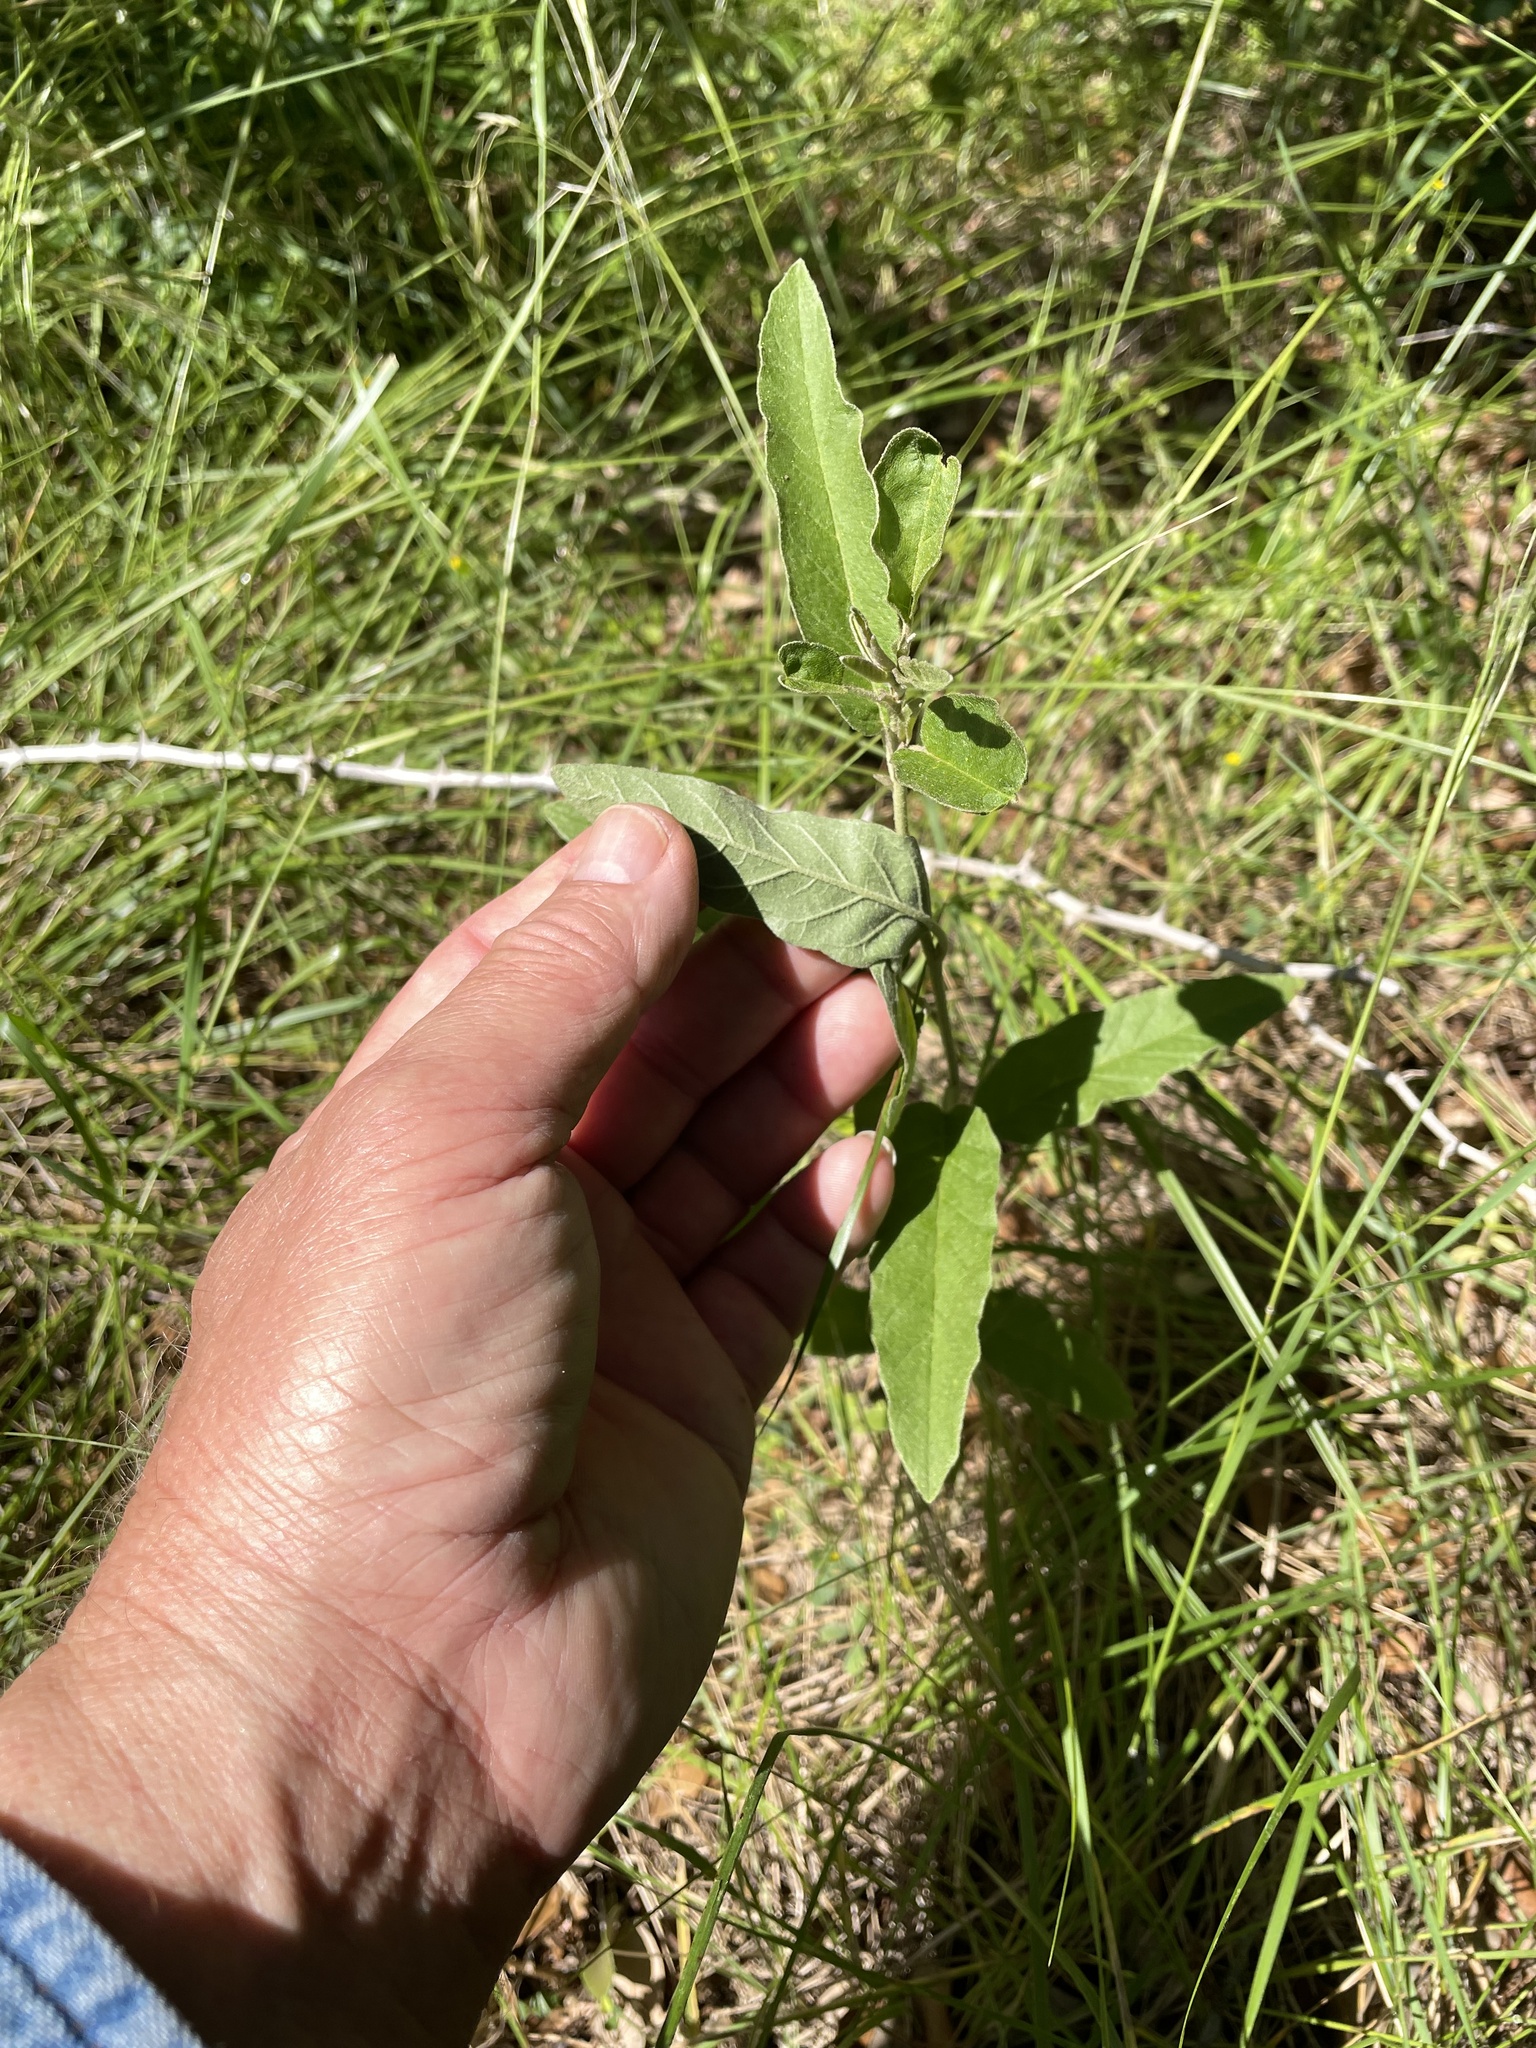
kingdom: Plantae
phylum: Tracheophyta
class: Magnoliopsida
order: Solanales
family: Solanaceae
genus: Solanum
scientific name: Solanum elaeagnifolium
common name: Silverleaf nightshade
